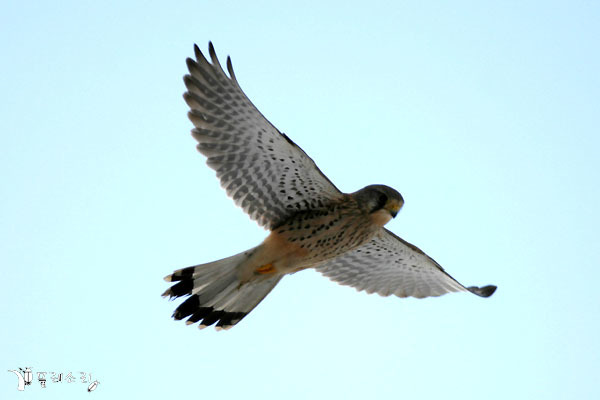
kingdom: Animalia
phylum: Chordata
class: Aves
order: Falconiformes
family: Falconidae
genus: Falco
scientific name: Falco tinnunculus
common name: Common kestrel
